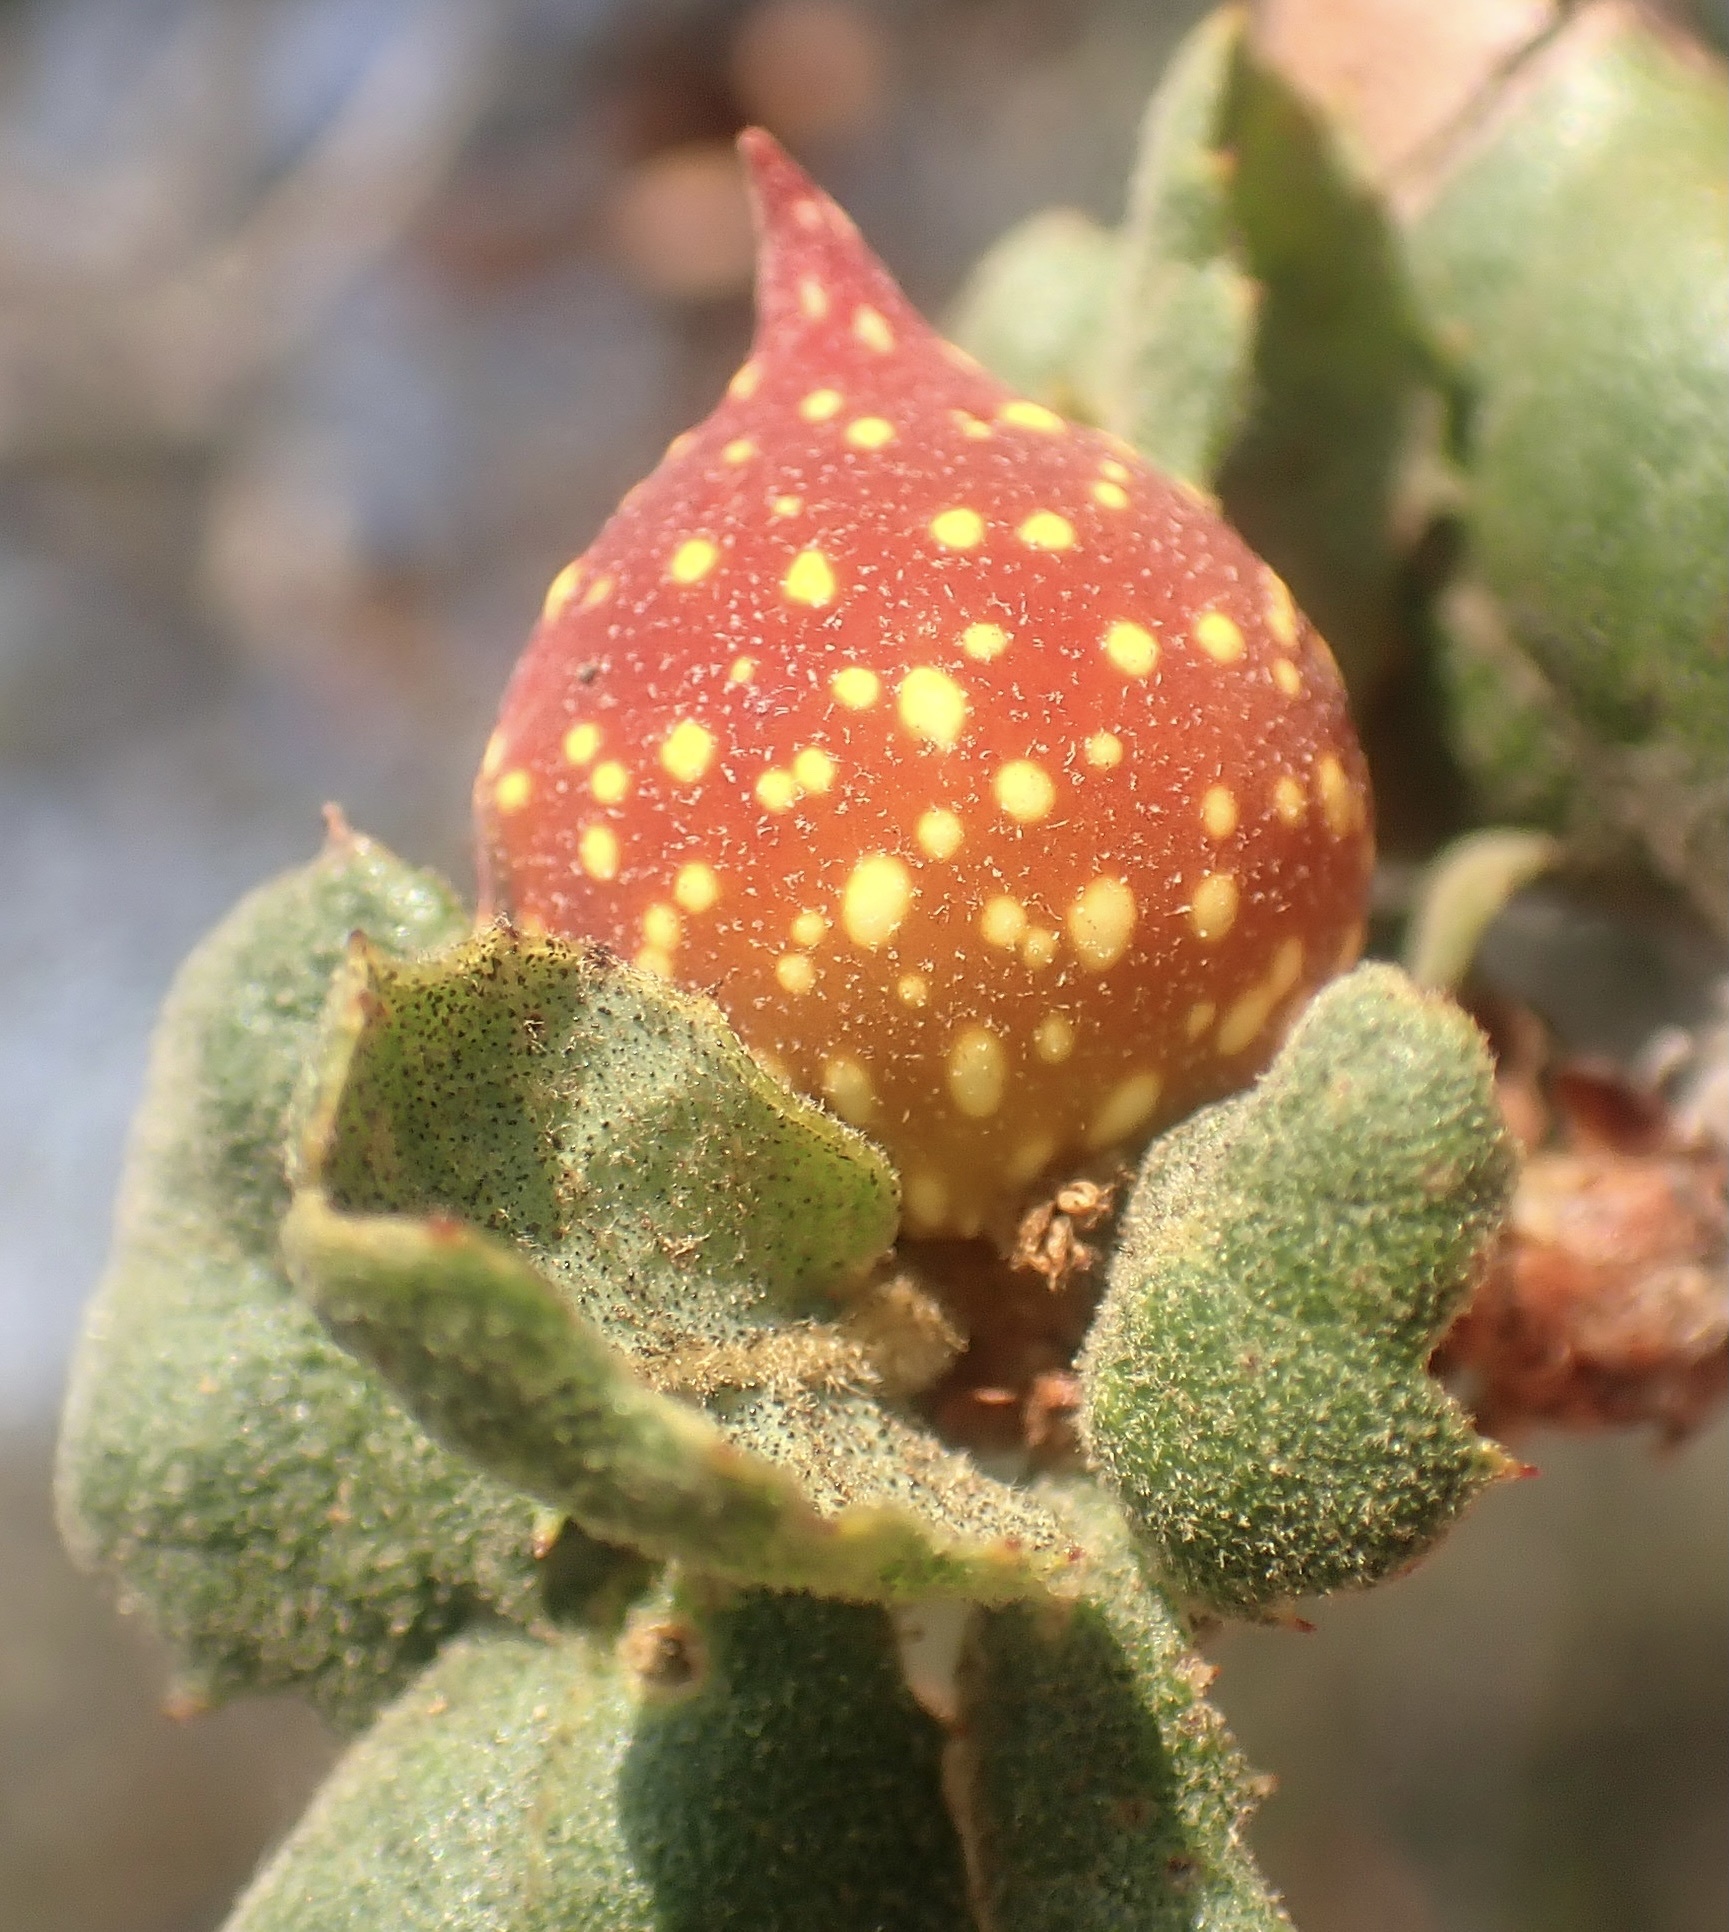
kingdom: Animalia
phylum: Arthropoda
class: Insecta
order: Hymenoptera
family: Cynipidae
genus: Burnettweldia
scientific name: Burnettweldia
